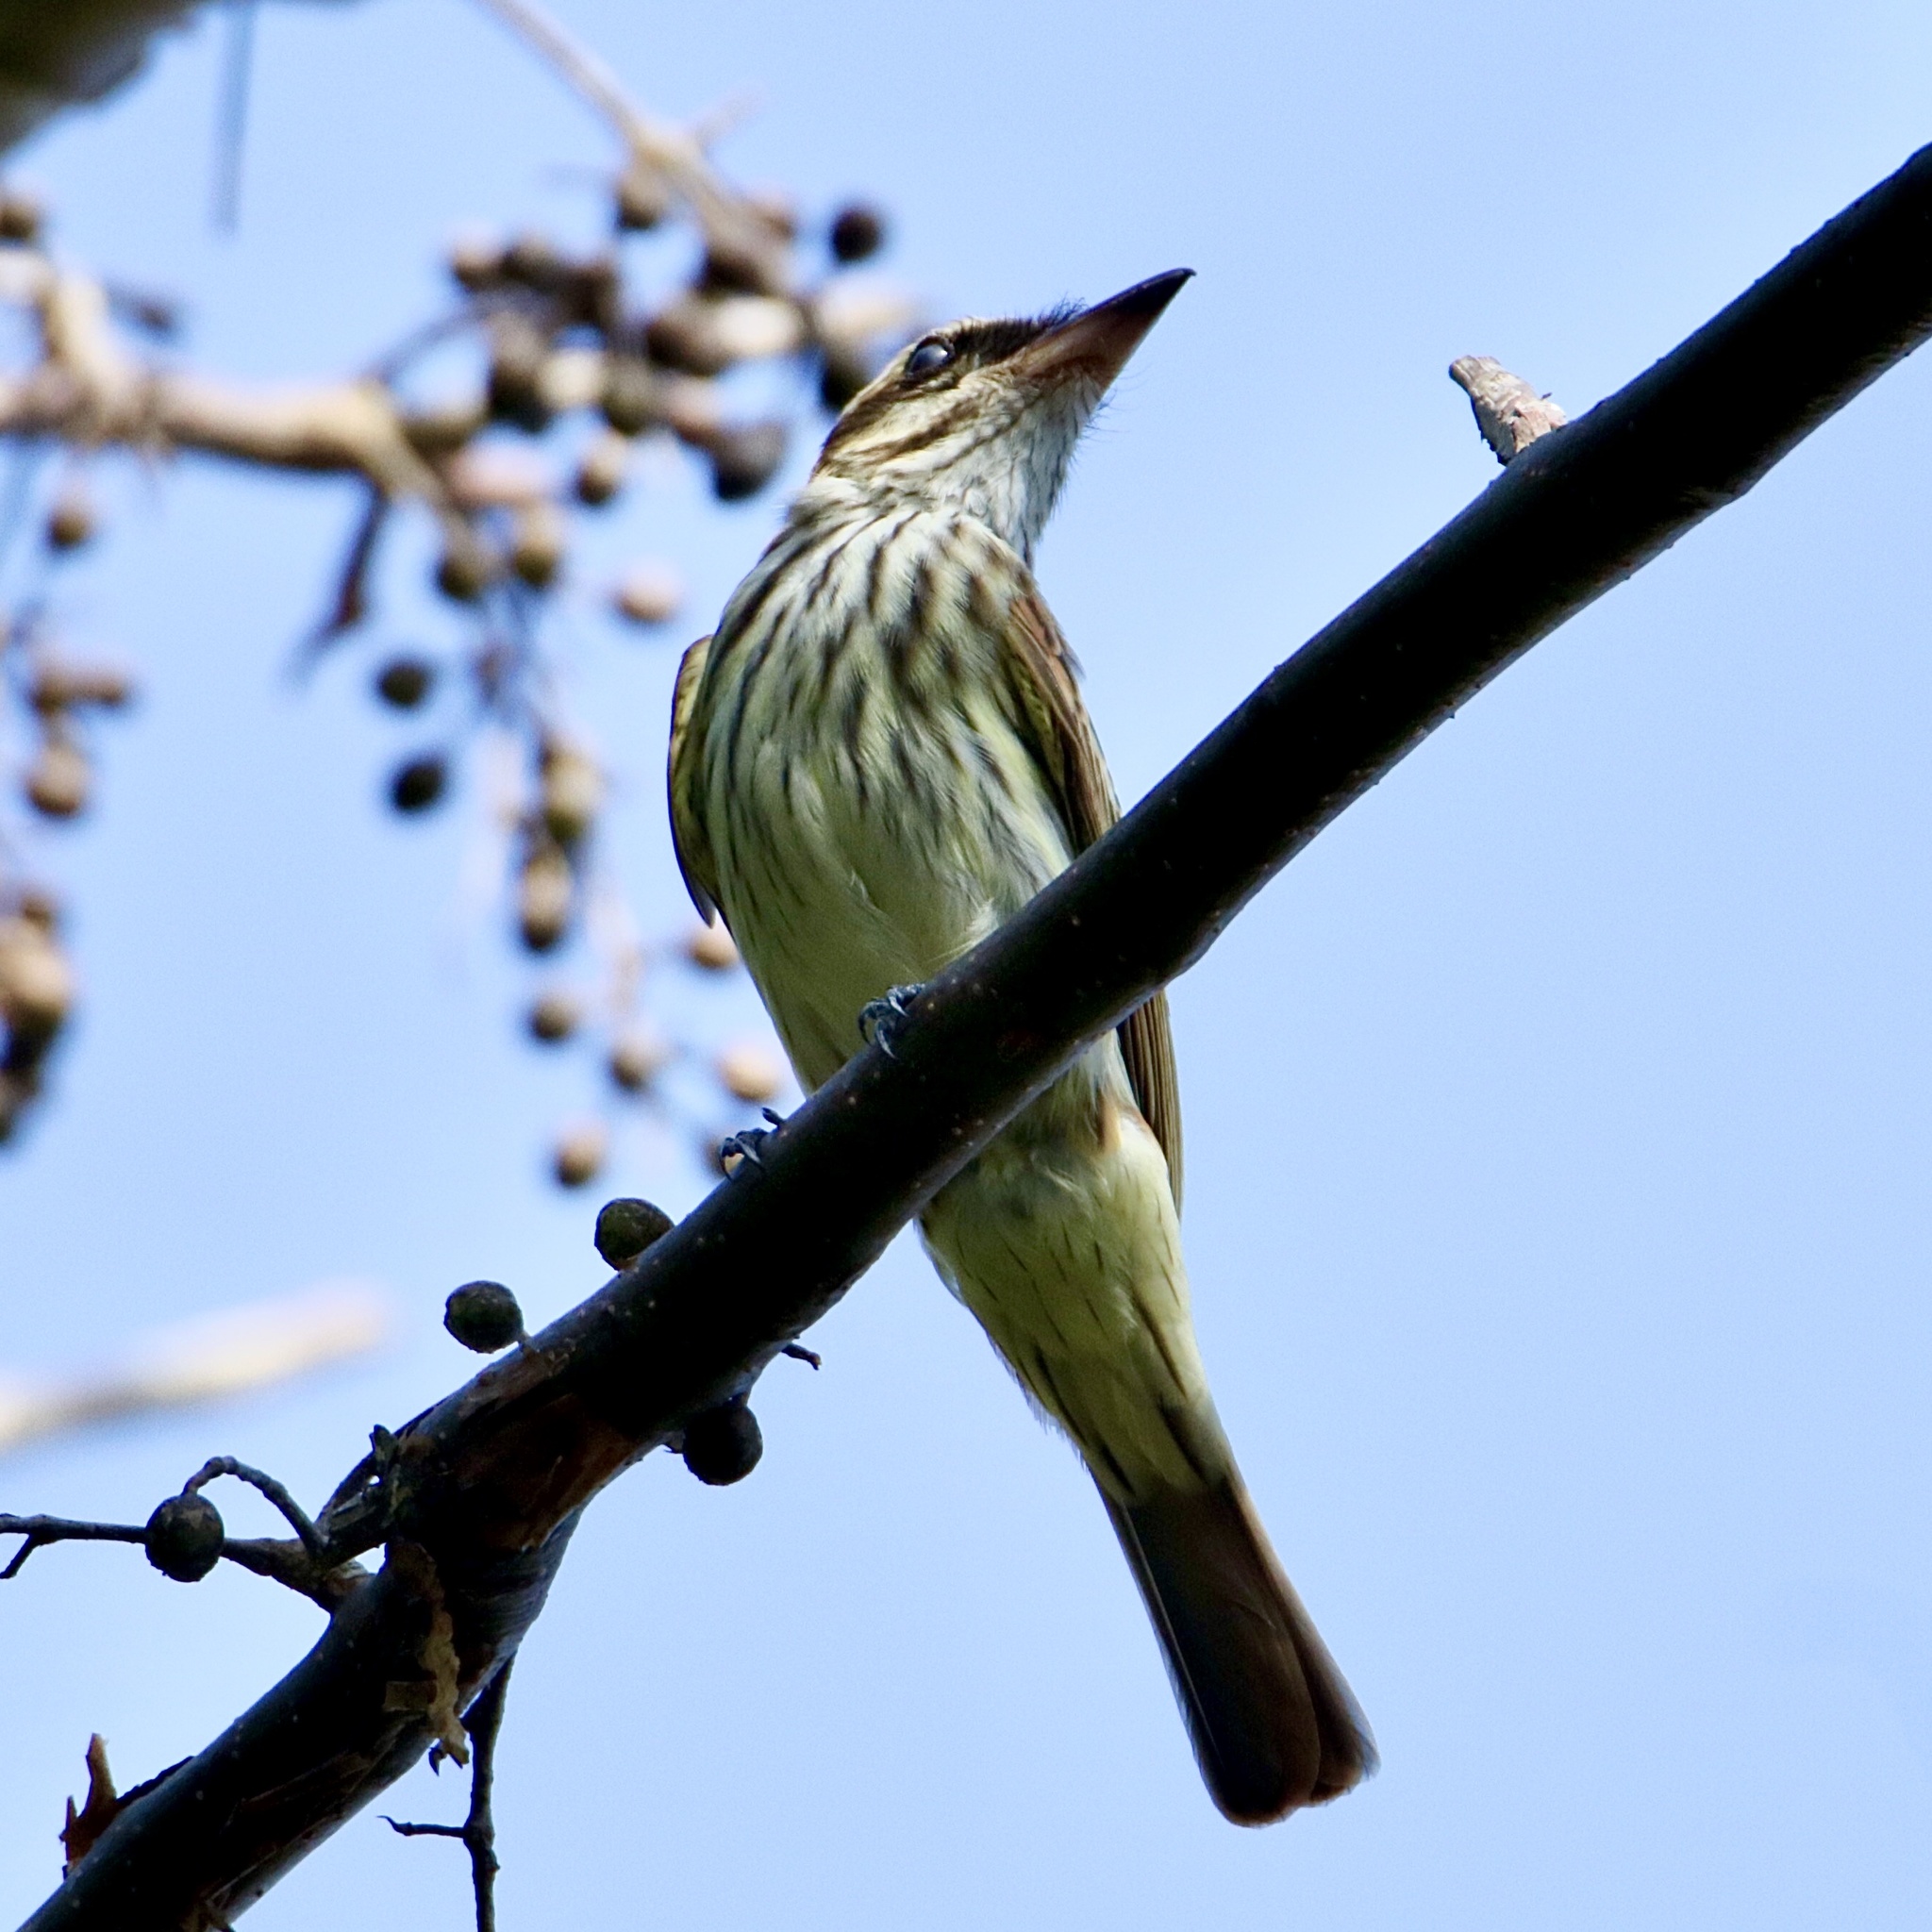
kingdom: Animalia
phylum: Chordata
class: Aves
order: Passeriformes
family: Tyrannidae
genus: Myiodynastes
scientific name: Myiodynastes maculatus
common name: Streaked flycatcher
